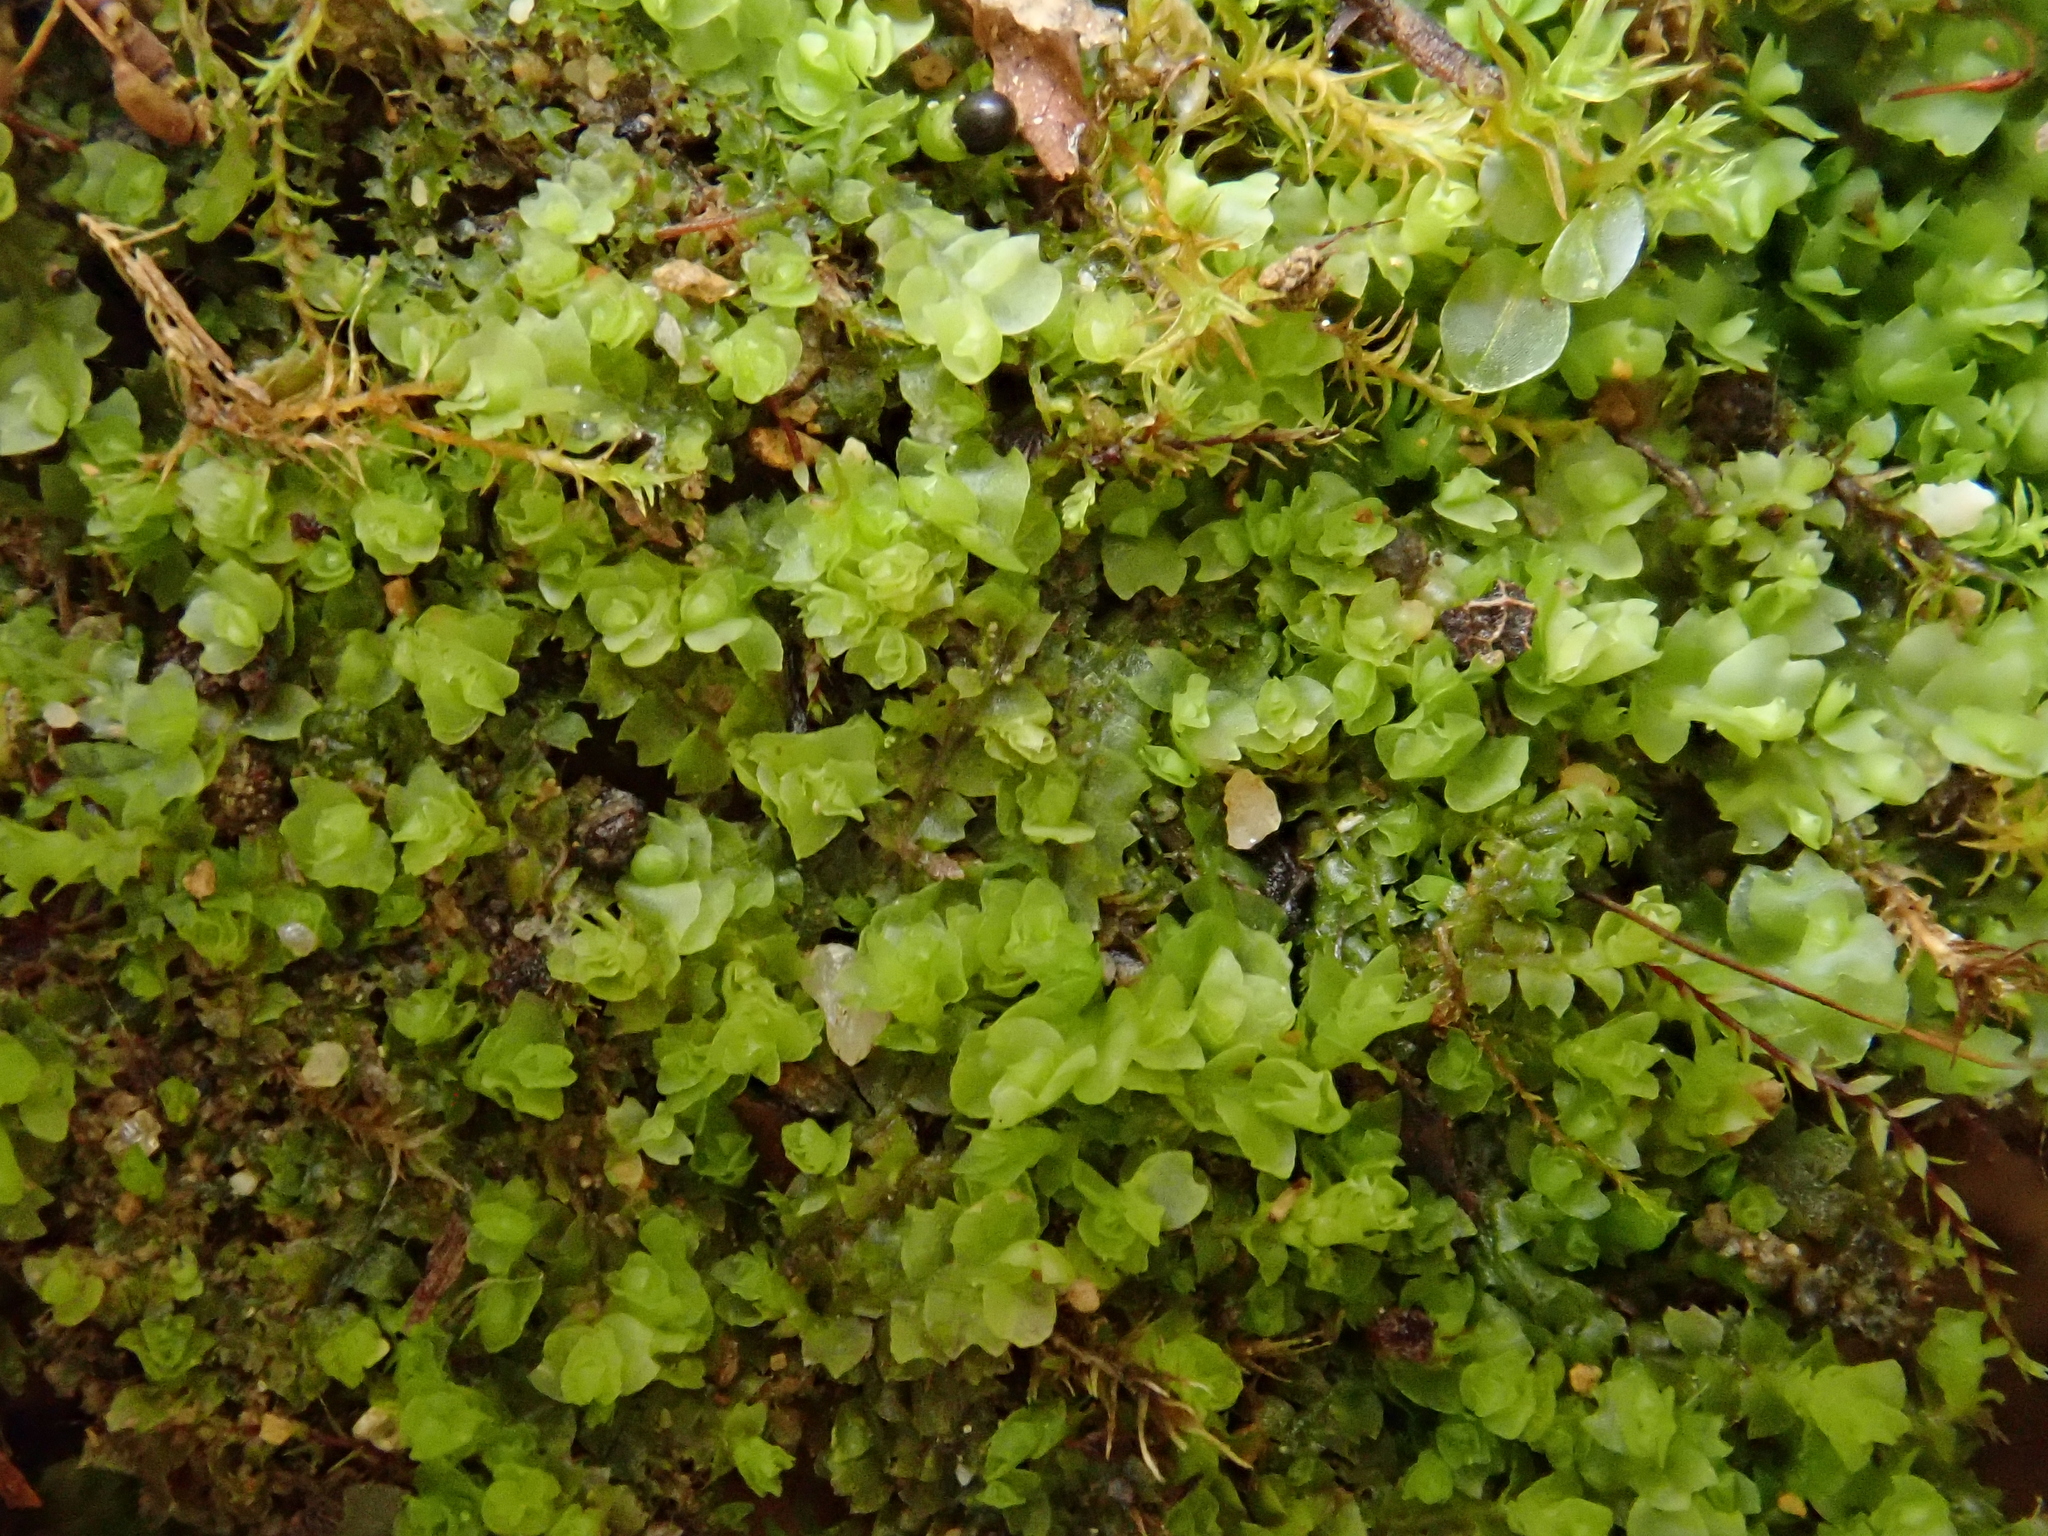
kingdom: Plantae
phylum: Marchantiophyta
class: Jungermanniopsida
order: Jungermanniales
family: Jungermanniaceae
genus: Mesoptychia
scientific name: Mesoptychia collaris
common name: Collared notchwort
